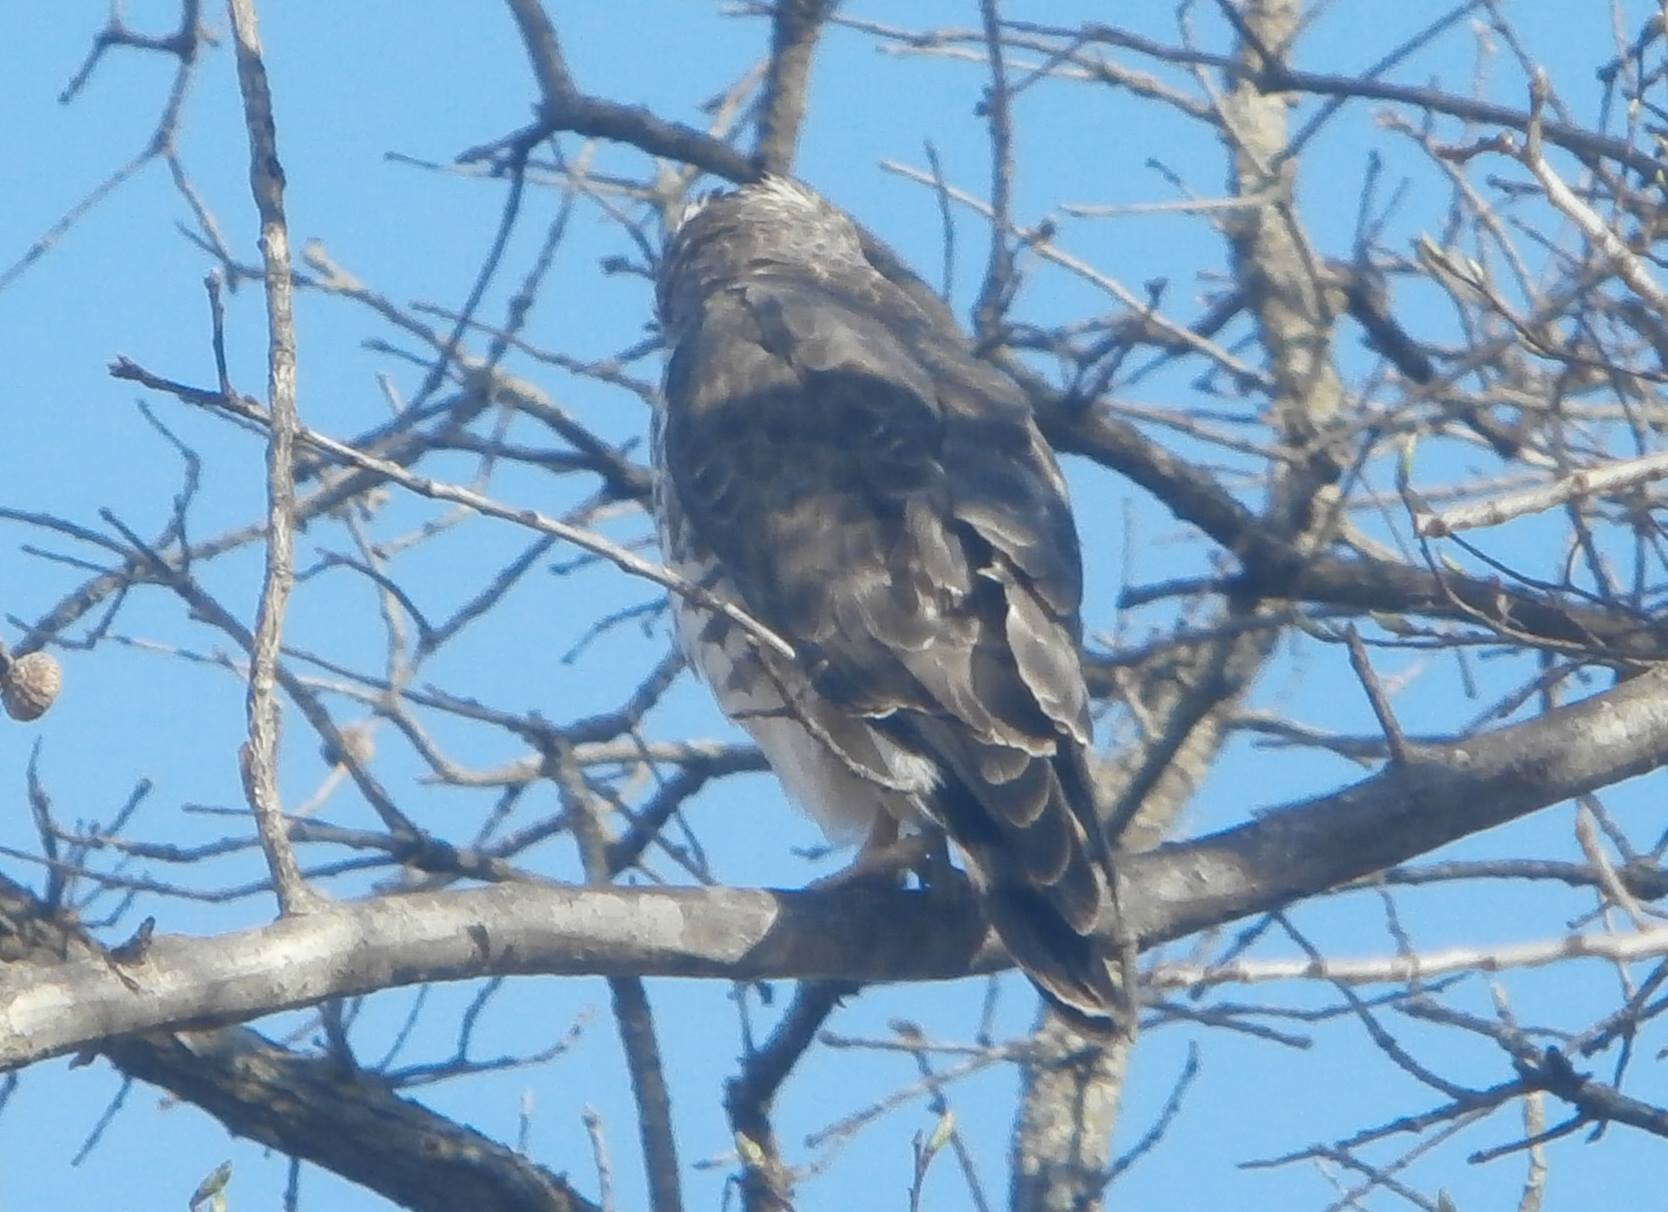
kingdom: Animalia
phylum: Chordata
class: Aves
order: Accipitriformes
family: Accipitridae
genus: Buteo
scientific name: Buteo platypterus
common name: Broad-winged hawk
